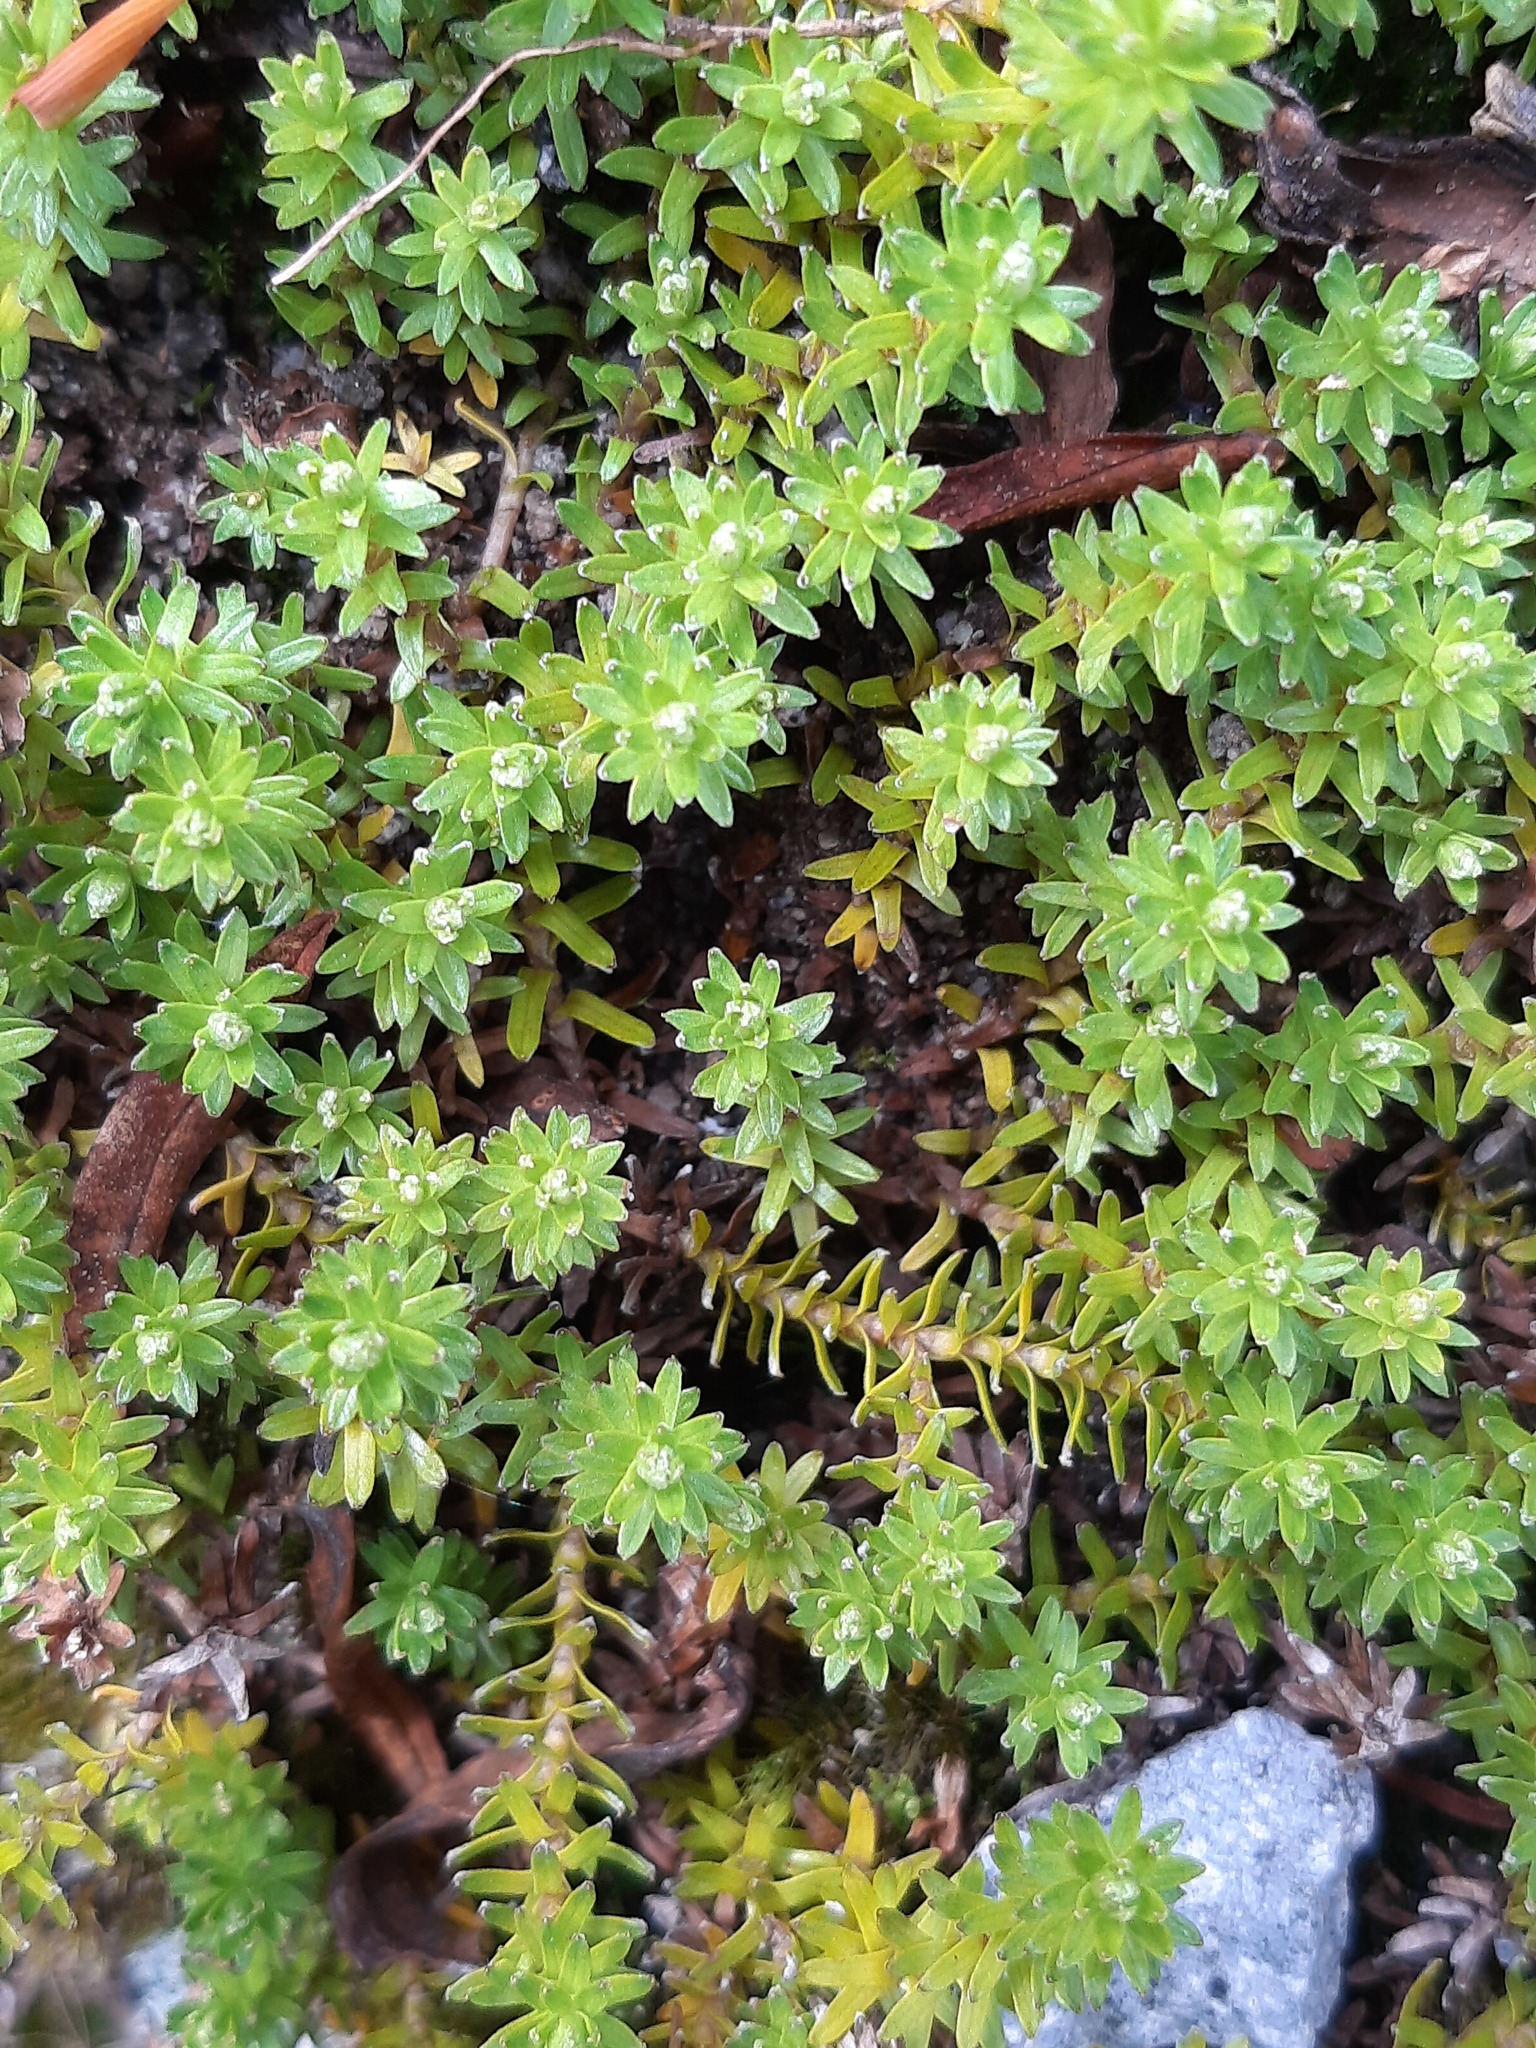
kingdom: Plantae
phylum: Tracheophyta
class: Magnoliopsida
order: Asterales
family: Asteraceae
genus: Raoulia
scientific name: Raoulia glabra
